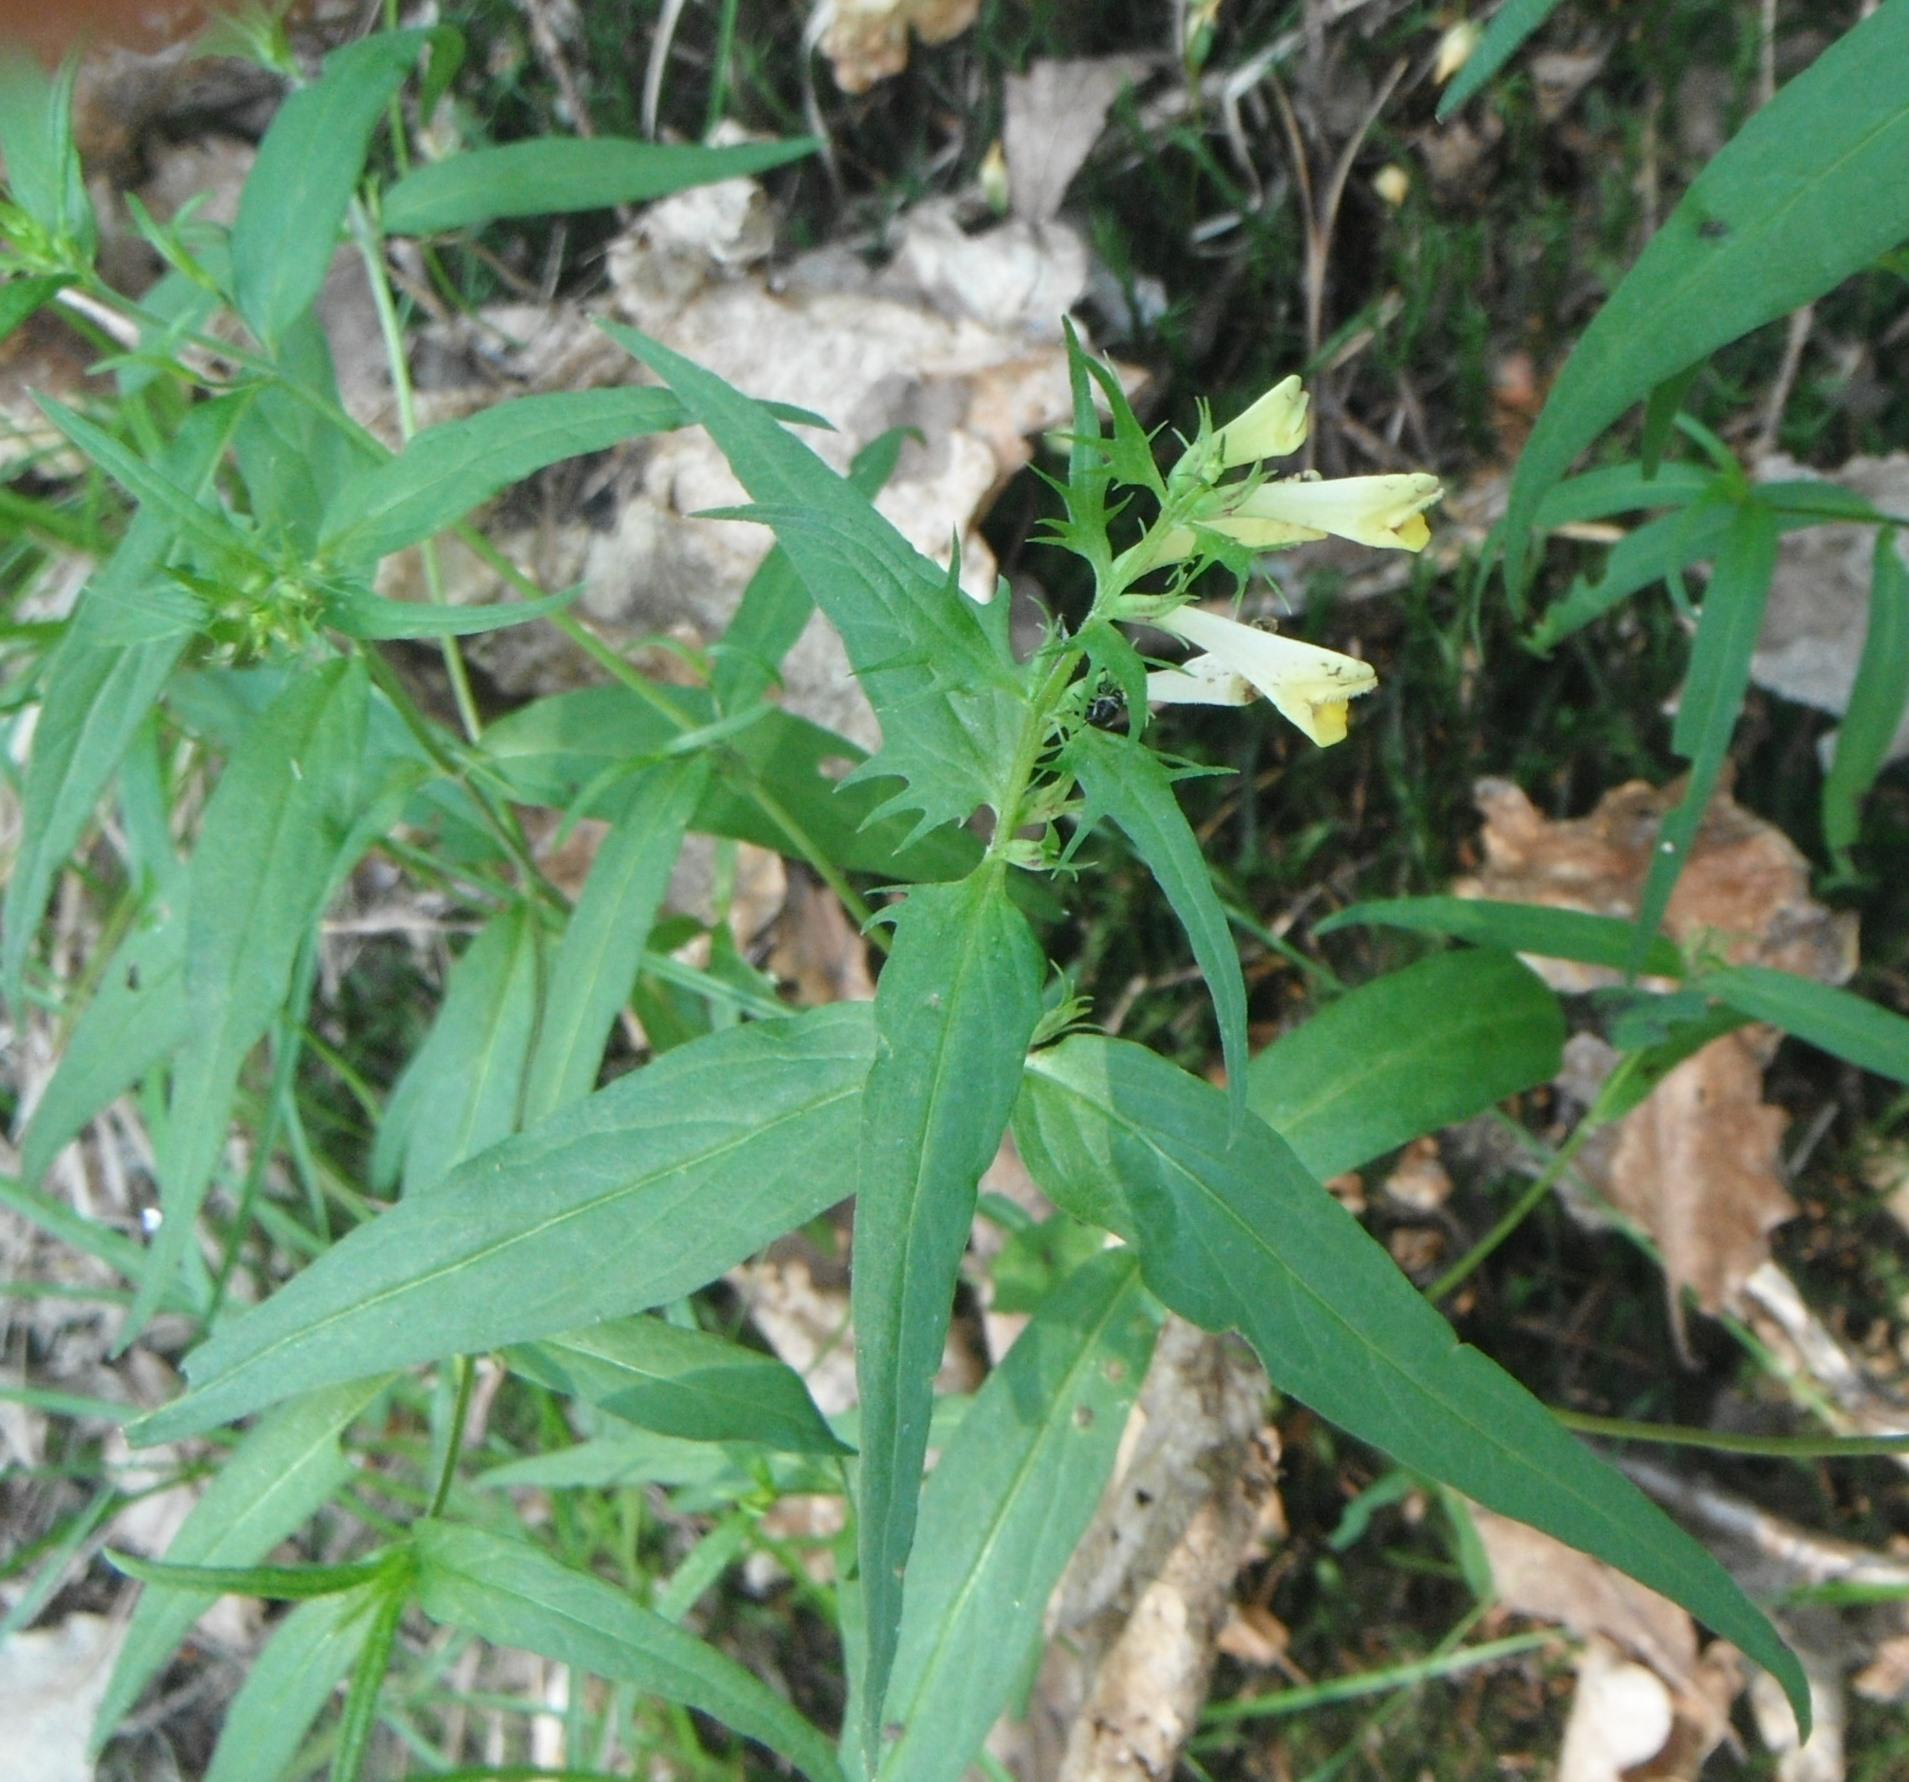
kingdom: Plantae
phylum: Tracheophyta
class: Magnoliopsida
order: Lamiales
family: Orobanchaceae
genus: Melampyrum
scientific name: Melampyrum pratense
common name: Common cow-wheat
